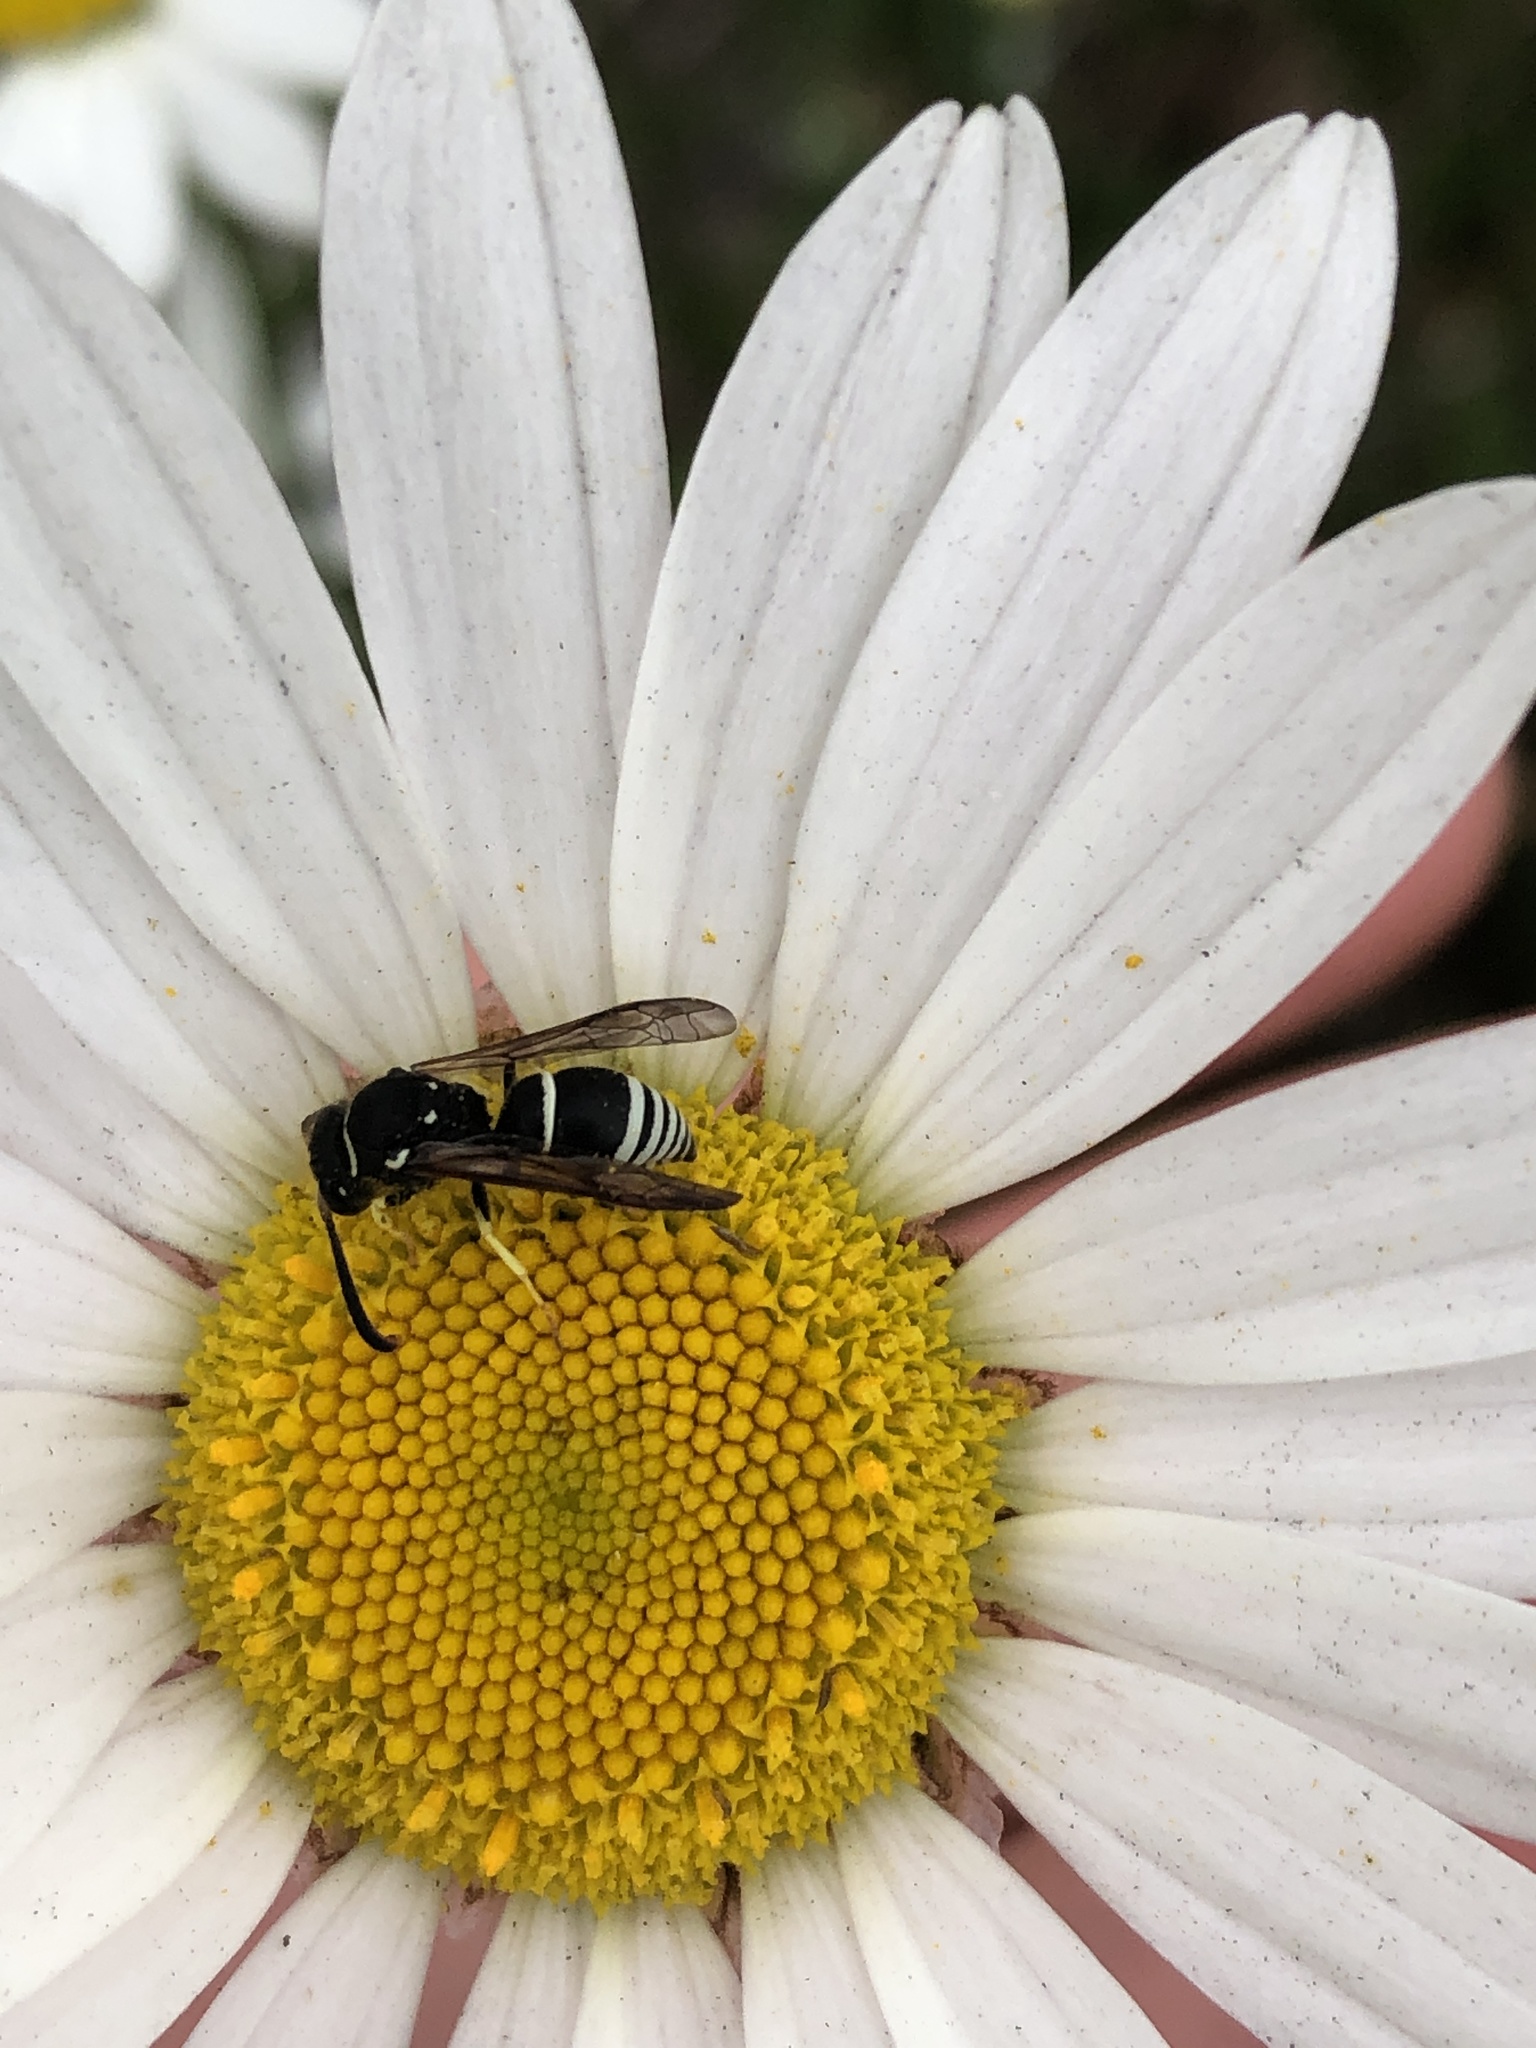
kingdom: Animalia
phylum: Arthropoda
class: Insecta
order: Hymenoptera
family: Vespidae
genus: Ancistrocerus
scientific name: Ancistrocerus
